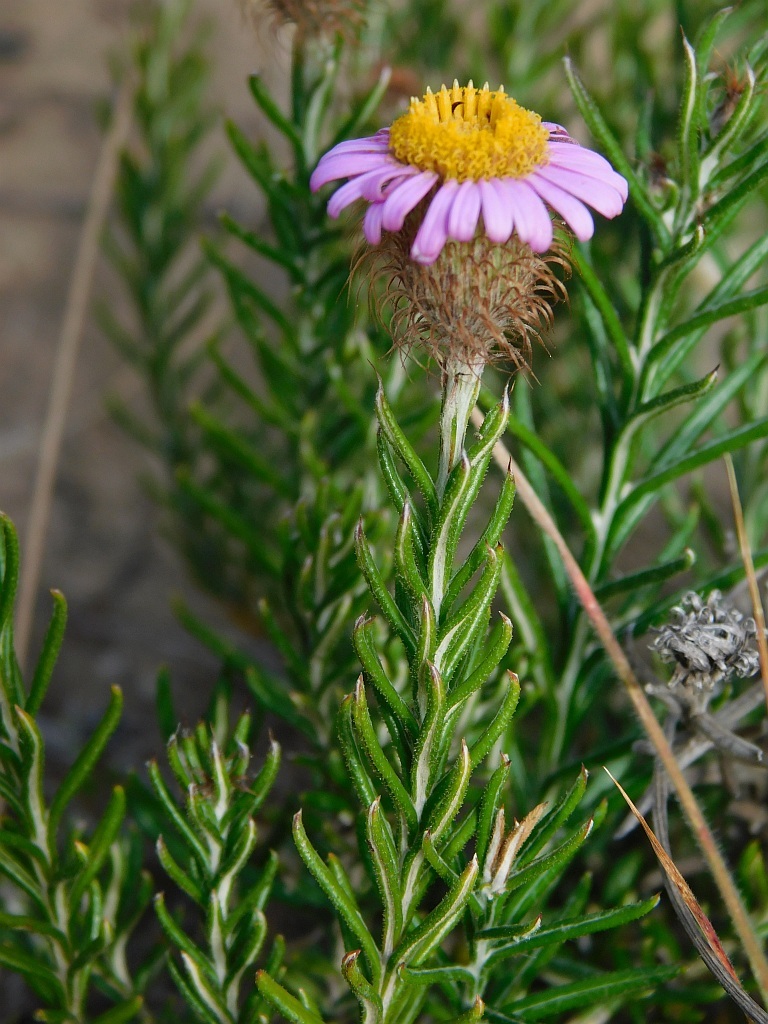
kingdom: Plantae
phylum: Tracheophyta
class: Magnoliopsida
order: Asterales
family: Asteraceae
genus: Athrixia
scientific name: Athrixia capensis
